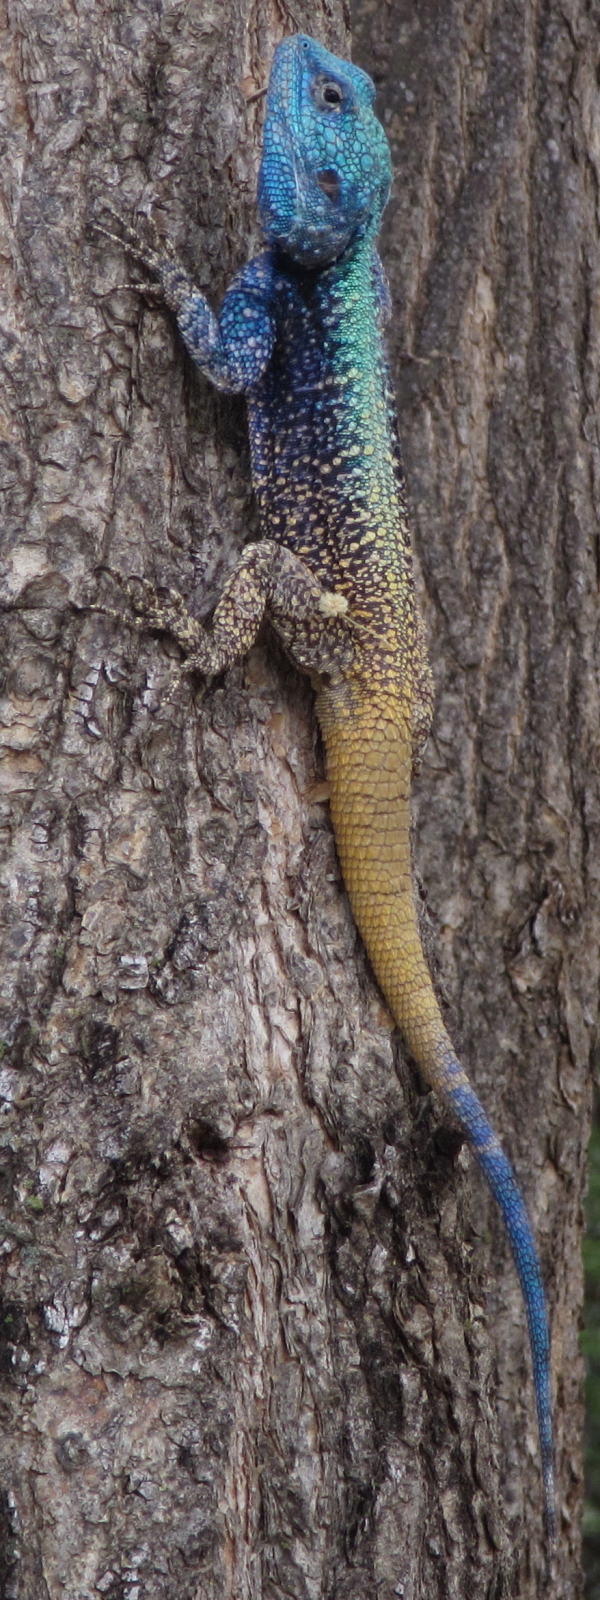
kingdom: Animalia
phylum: Chordata
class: Squamata
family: Agamidae
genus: Acanthocercus
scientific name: Acanthocercus atricollis
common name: Southern tree agama
